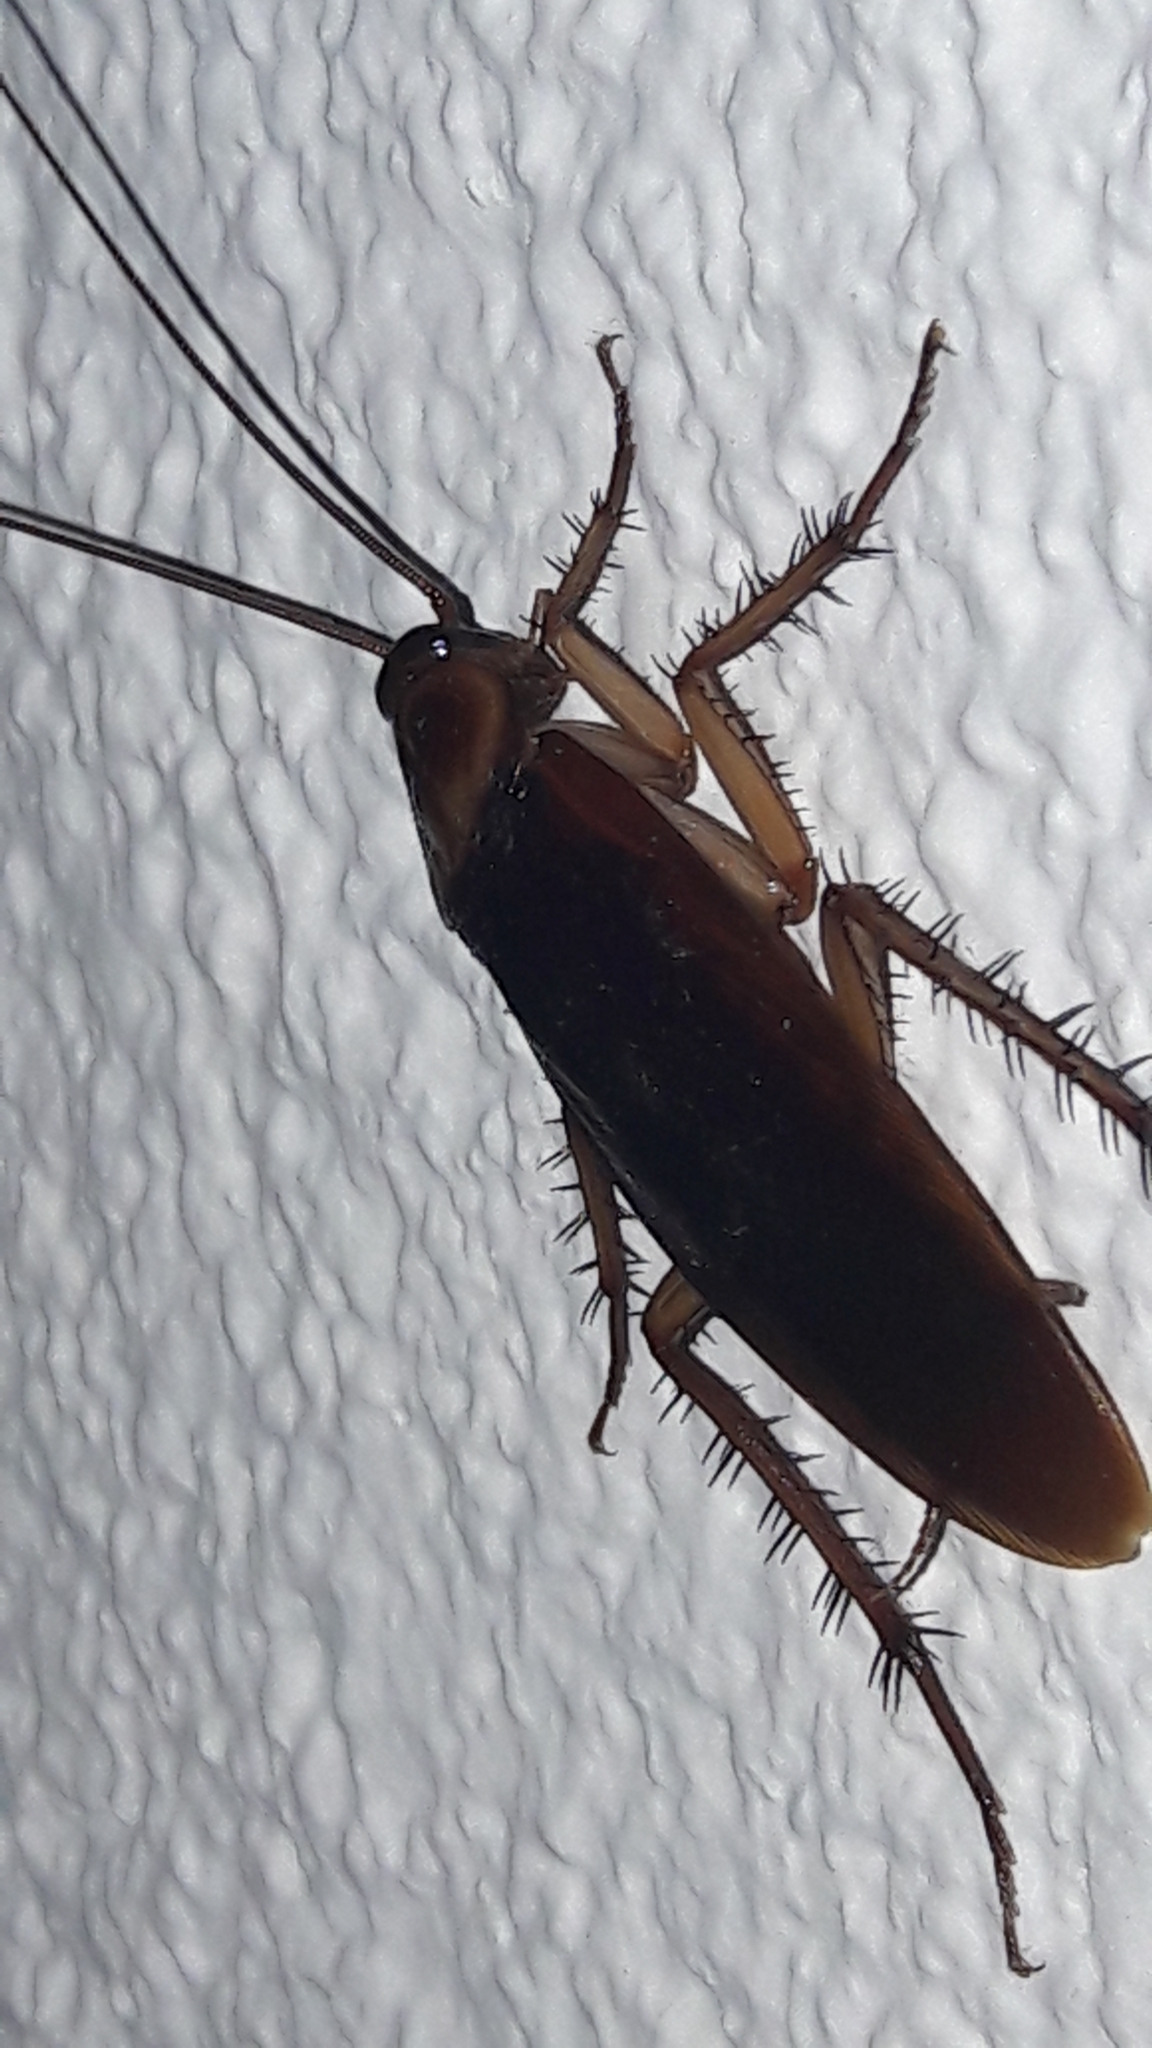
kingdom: Animalia
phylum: Arthropoda
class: Insecta
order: Blattodea
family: Blattidae
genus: Periplaneta
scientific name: Periplaneta americana
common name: American cockroach
